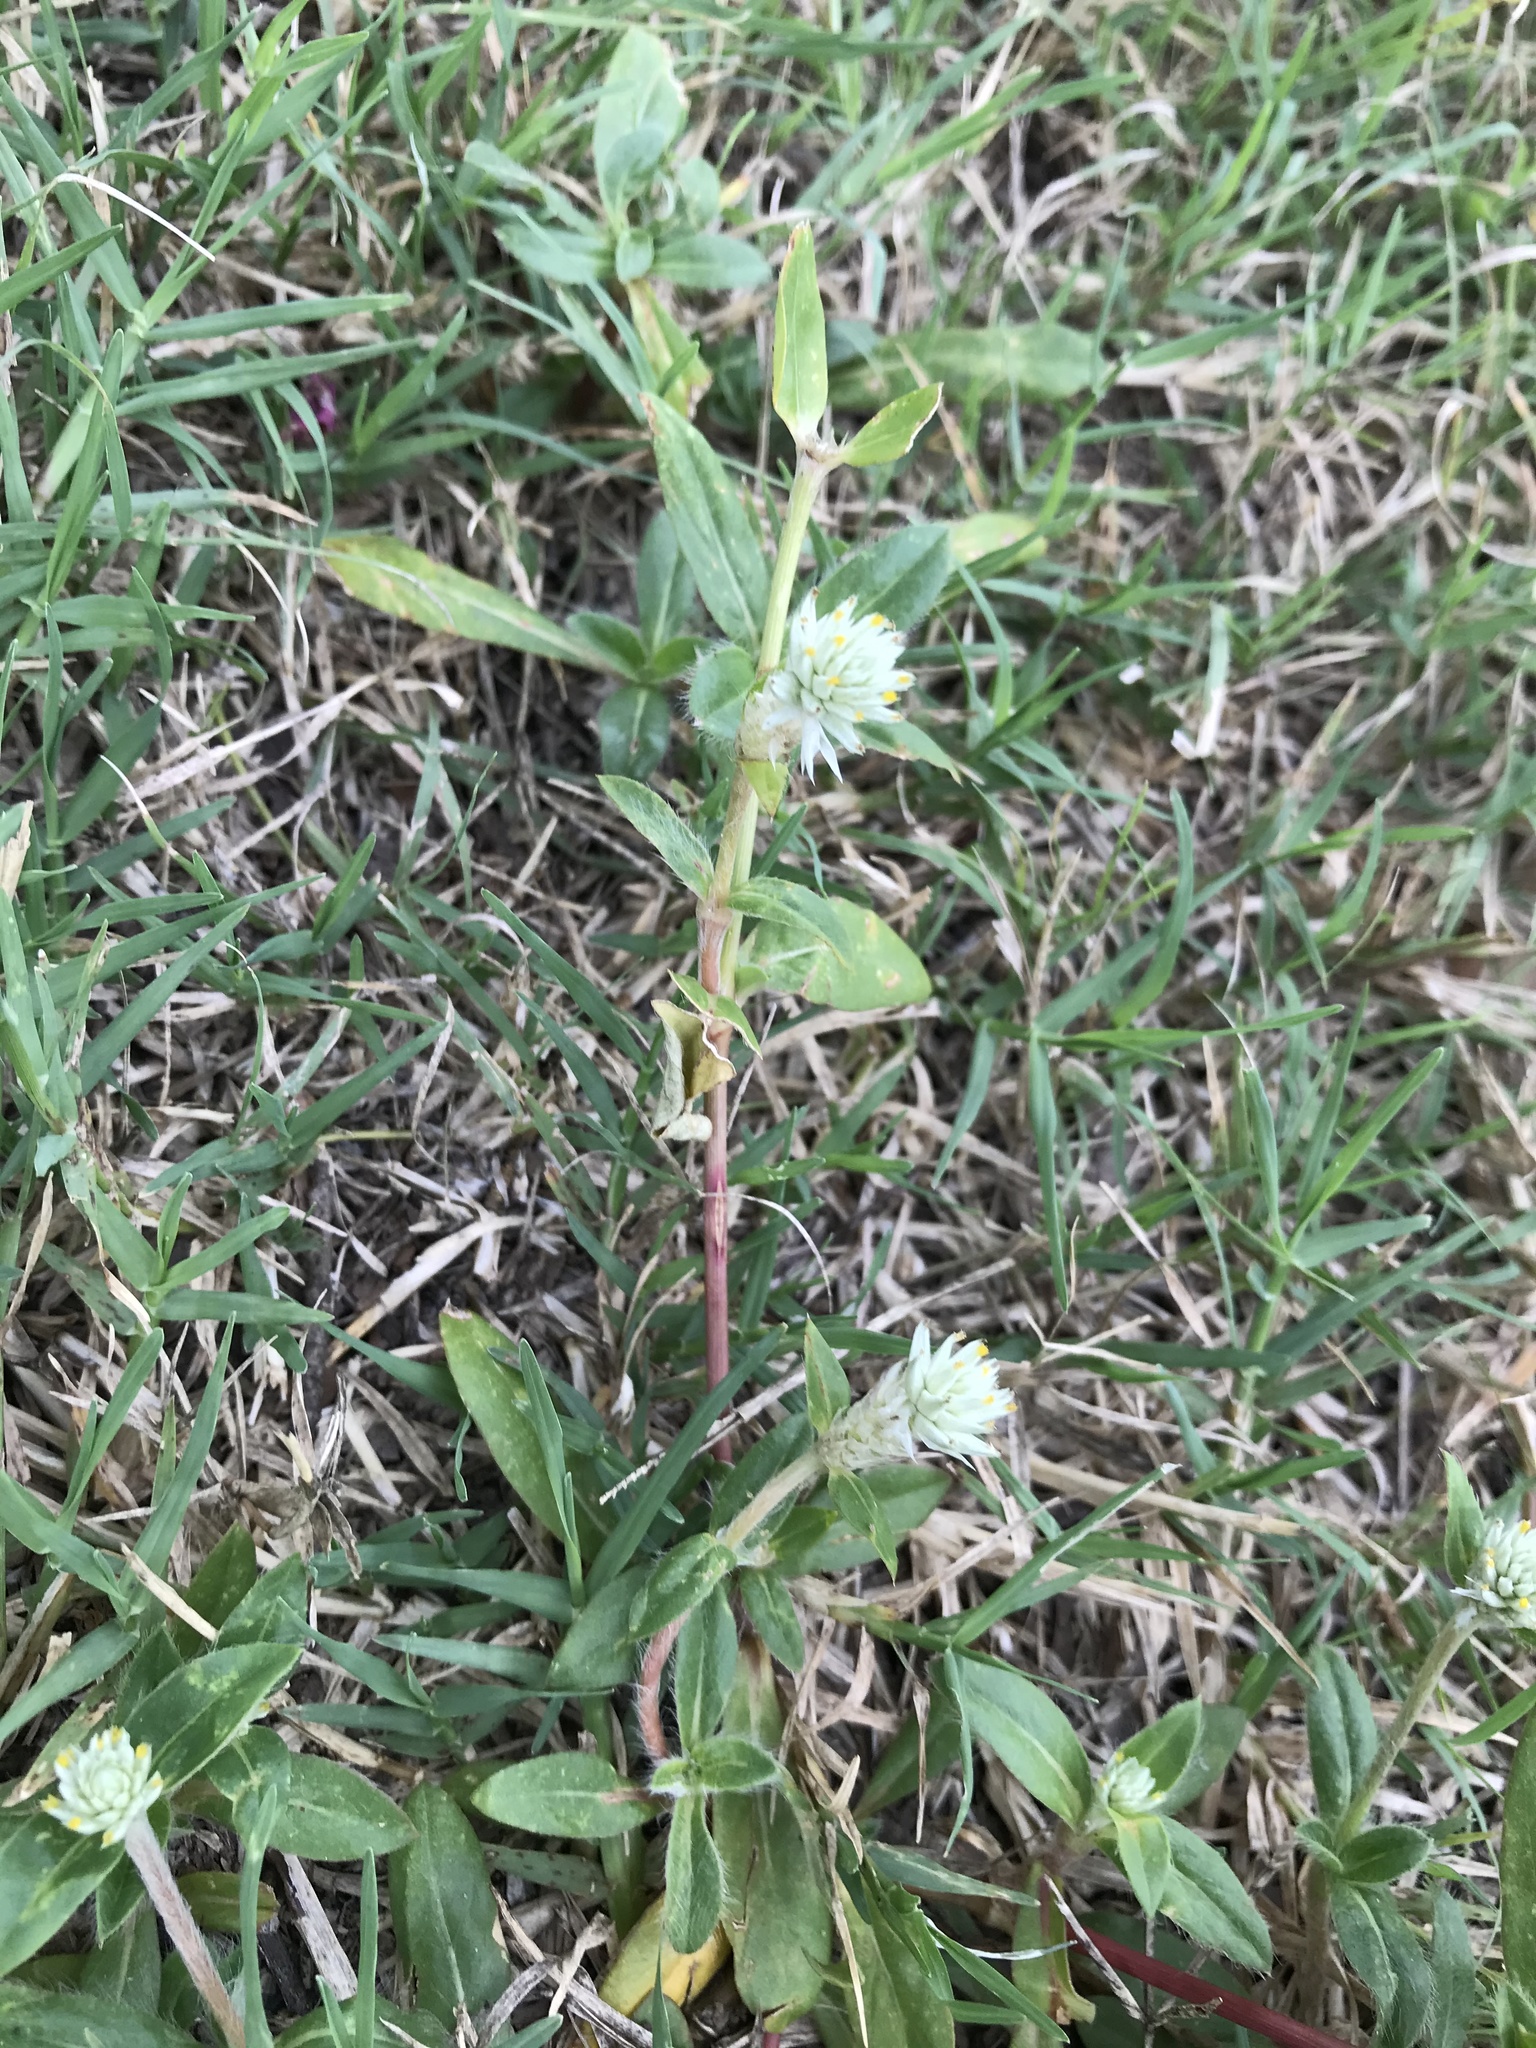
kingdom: Plantae
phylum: Tracheophyta
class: Magnoliopsida
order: Caryophyllales
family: Amaranthaceae
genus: Gomphrena
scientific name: Gomphrena serrata
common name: Arrasa con todo
